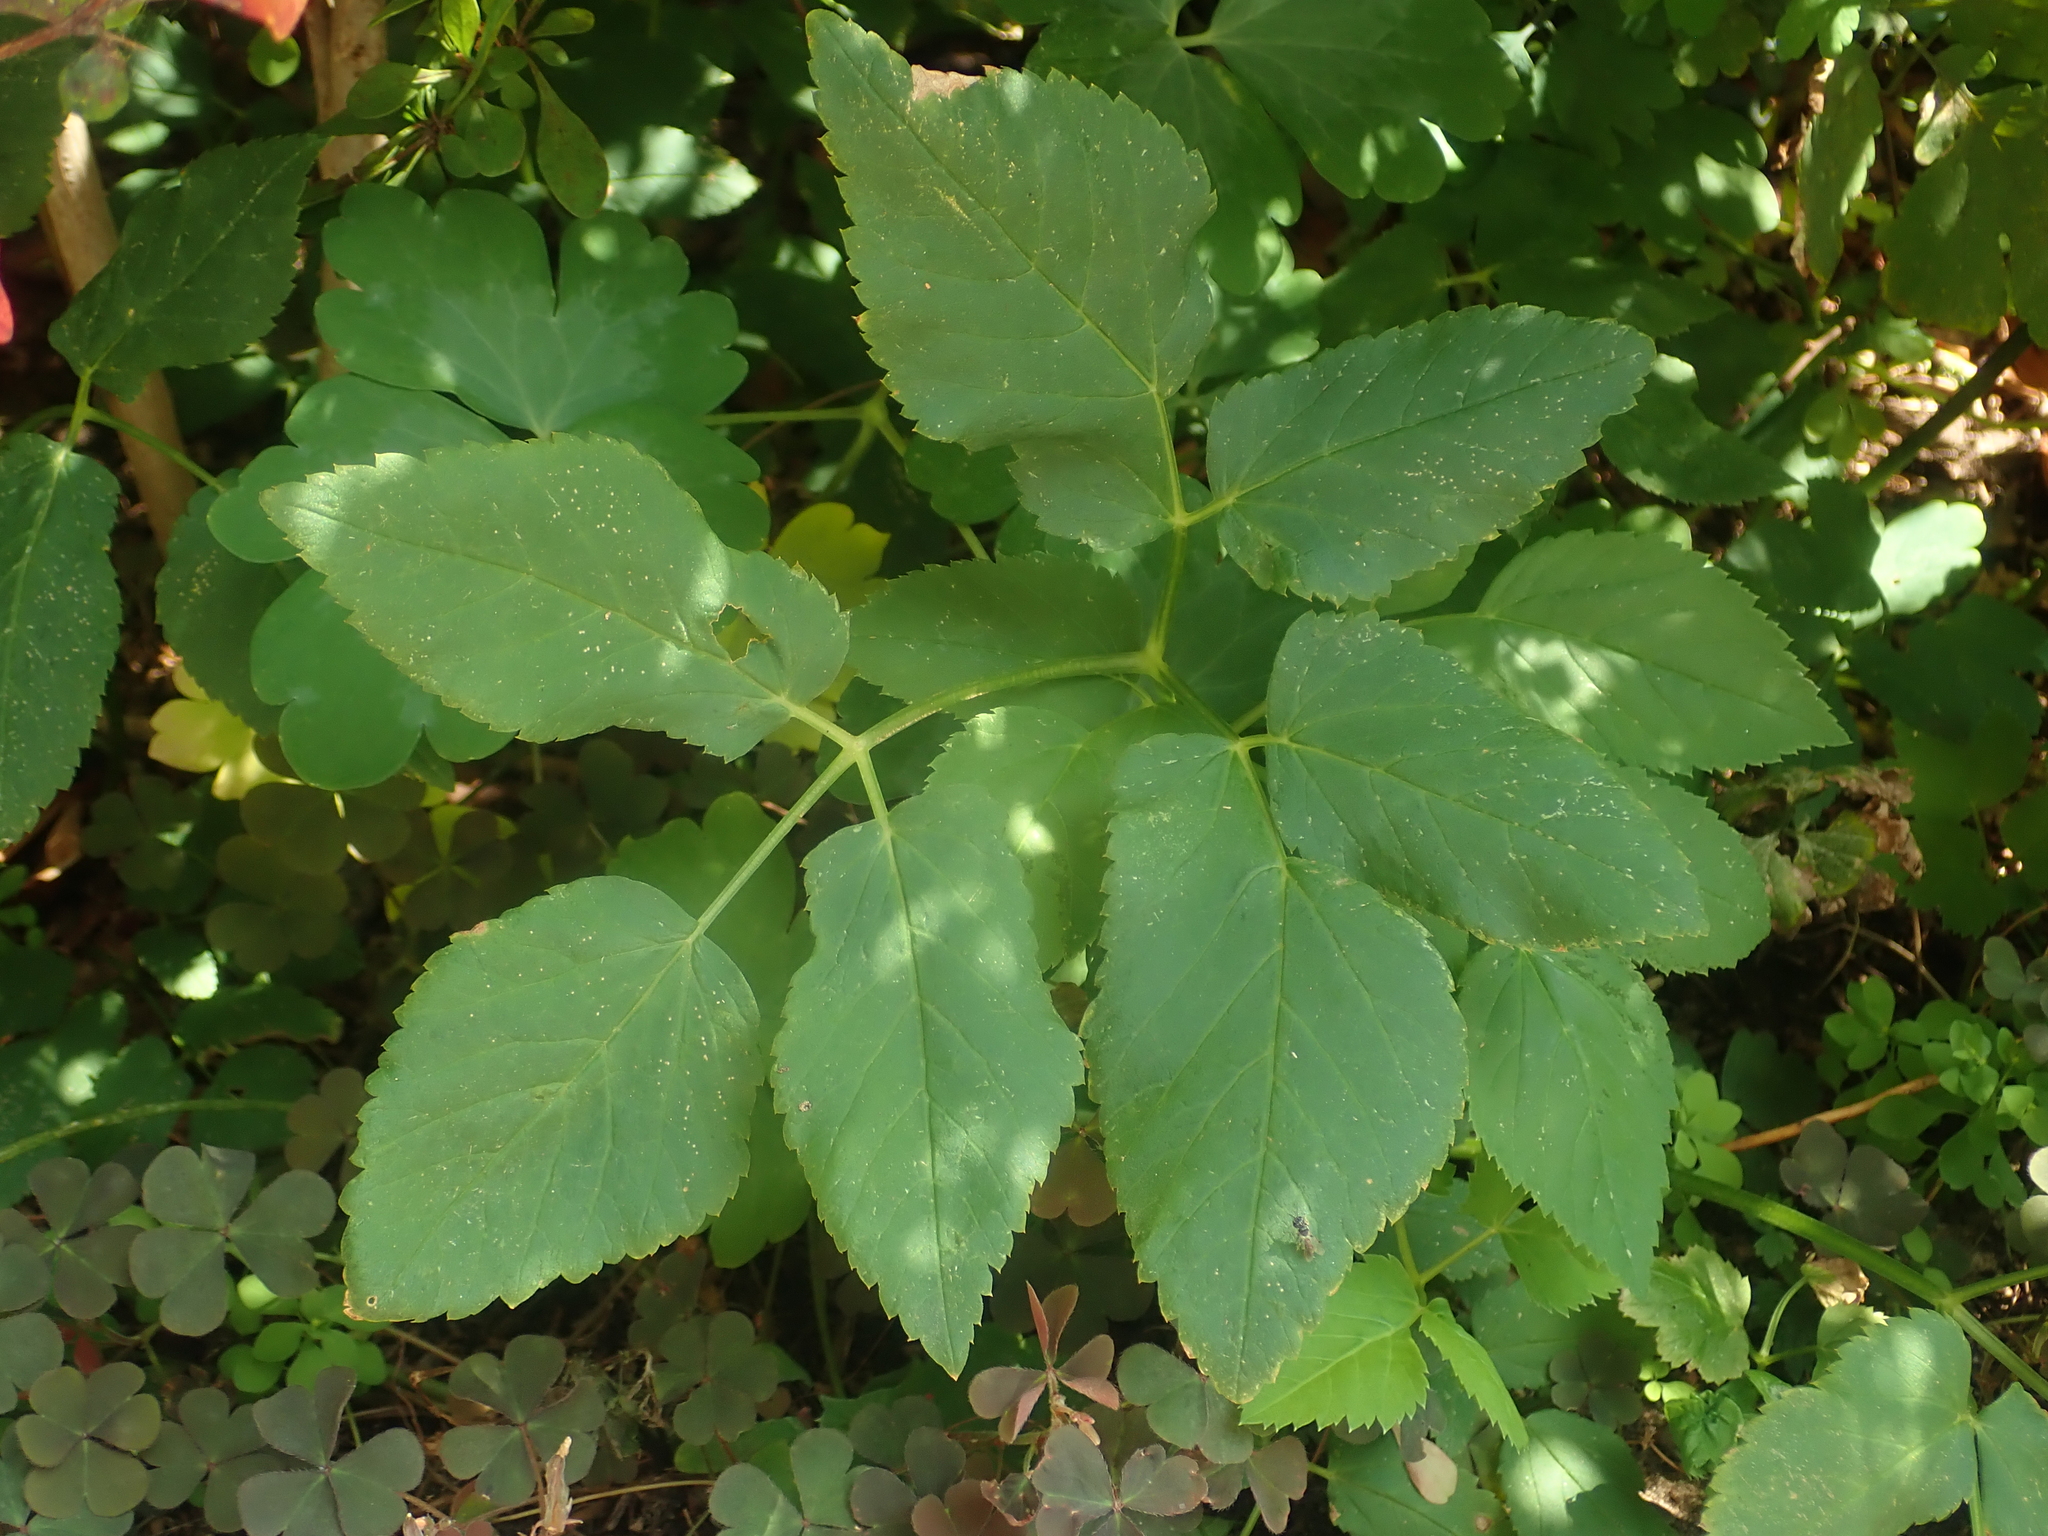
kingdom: Plantae
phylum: Tracheophyta
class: Magnoliopsida
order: Apiales
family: Apiaceae
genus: Aegopodium
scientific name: Aegopodium podagraria
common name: Ground-elder
